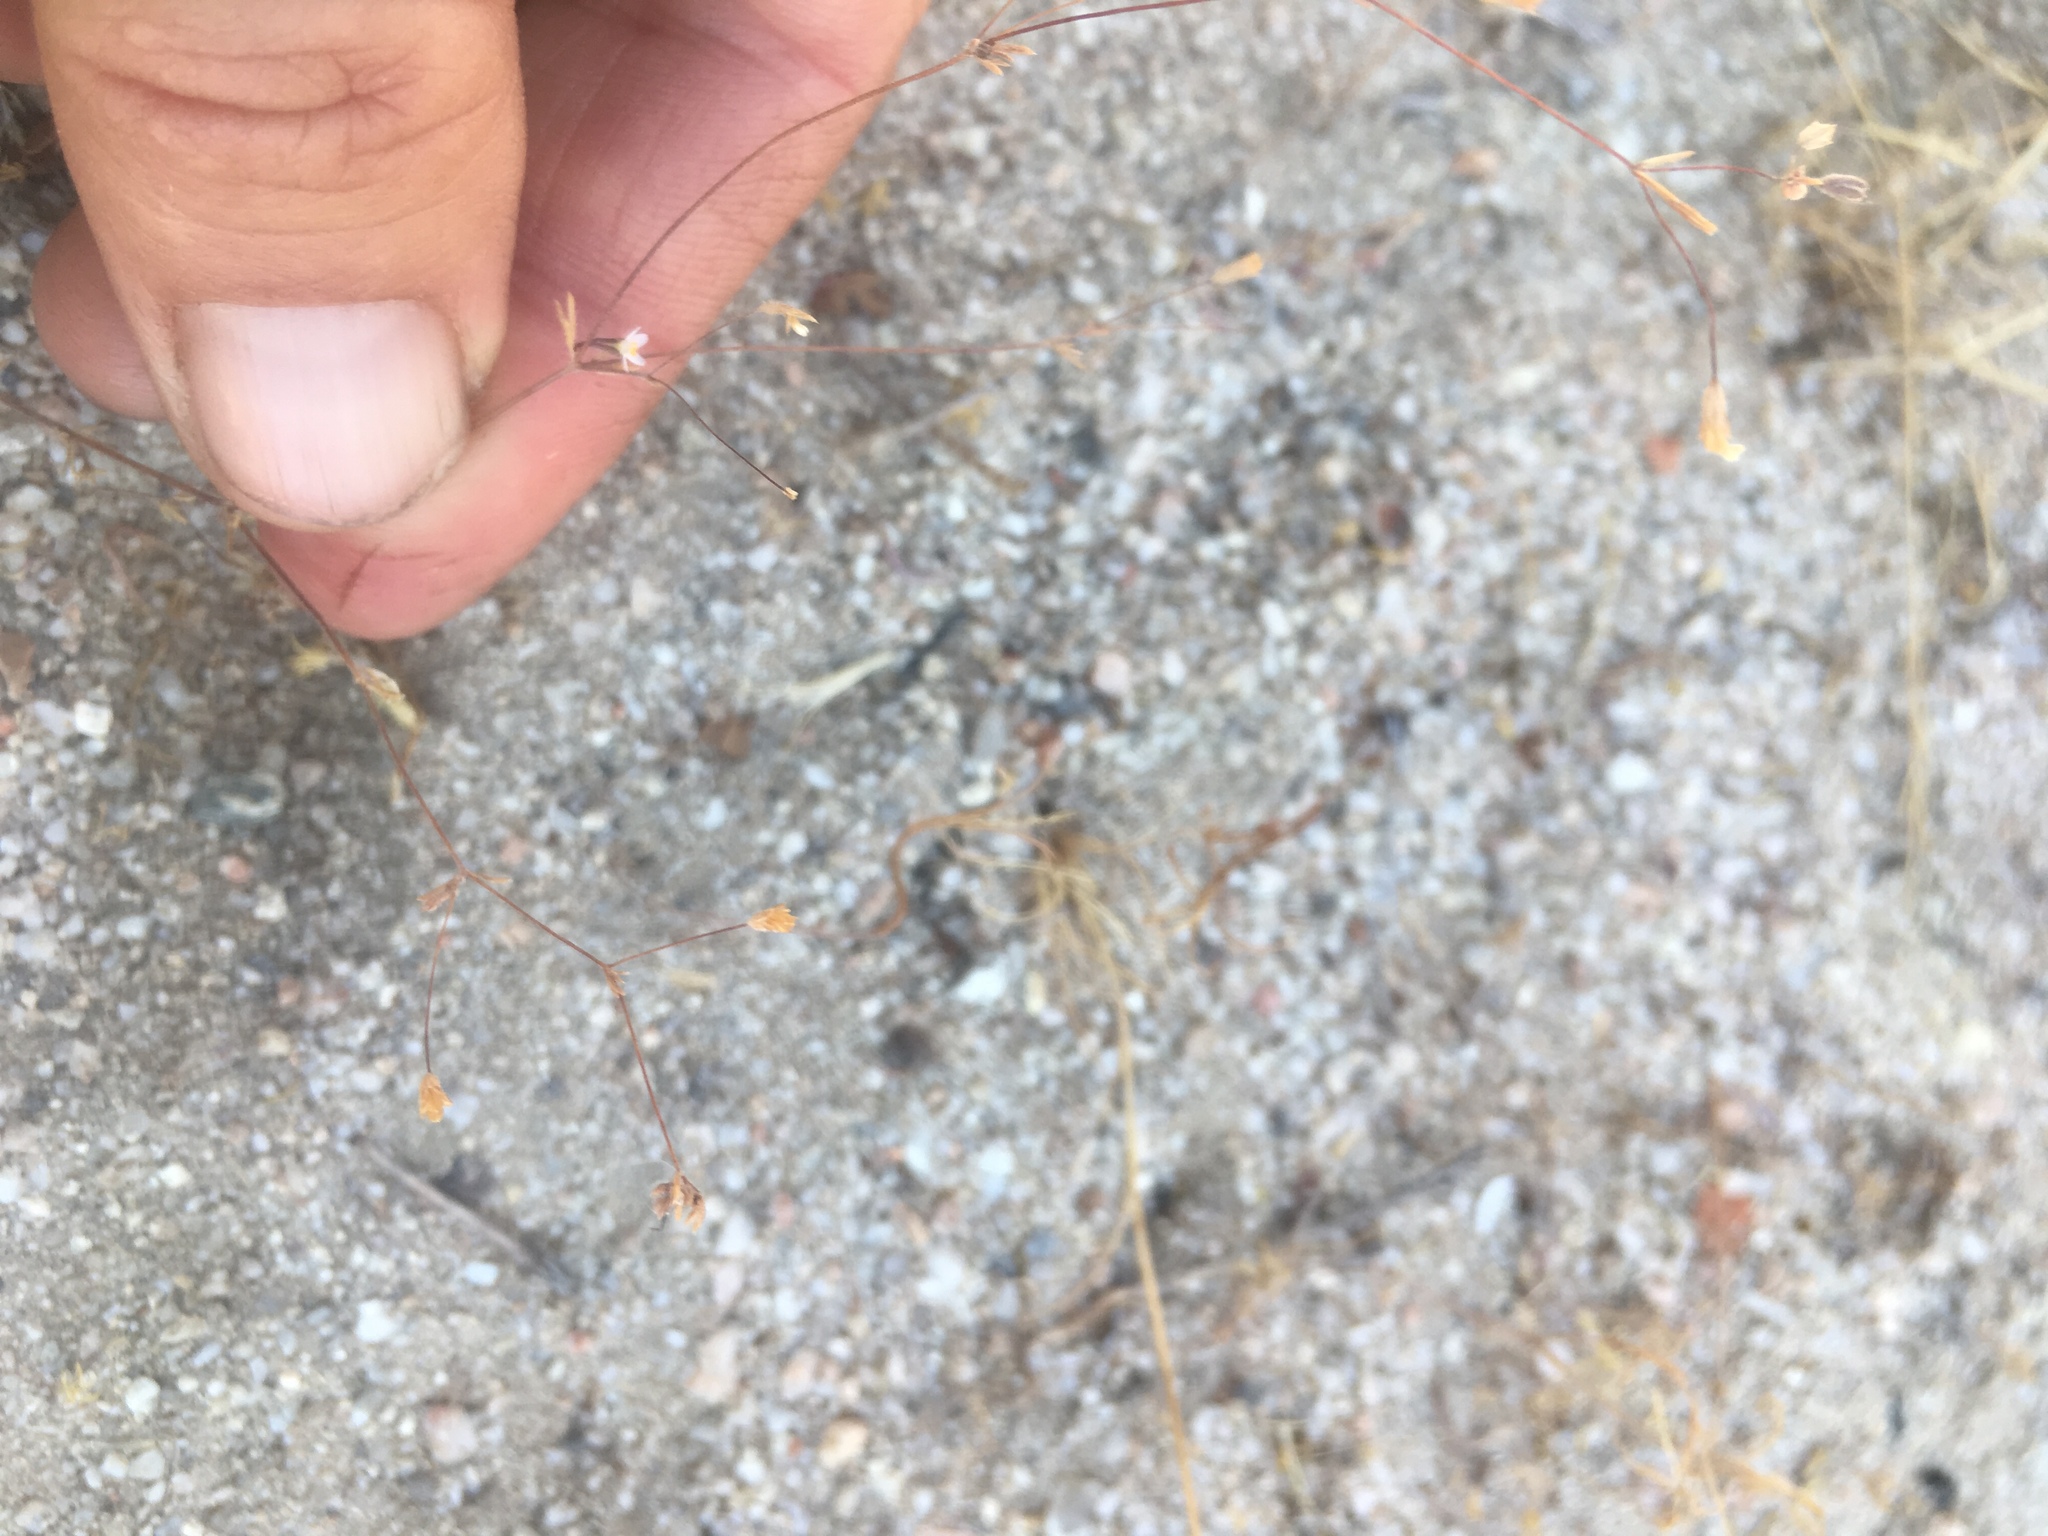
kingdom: Plantae
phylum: Tracheophyta
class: Magnoliopsida
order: Ericales
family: Polemoniaceae
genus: Leptosiphon
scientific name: Leptosiphon pygmaeus
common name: Pygmy linanthus
